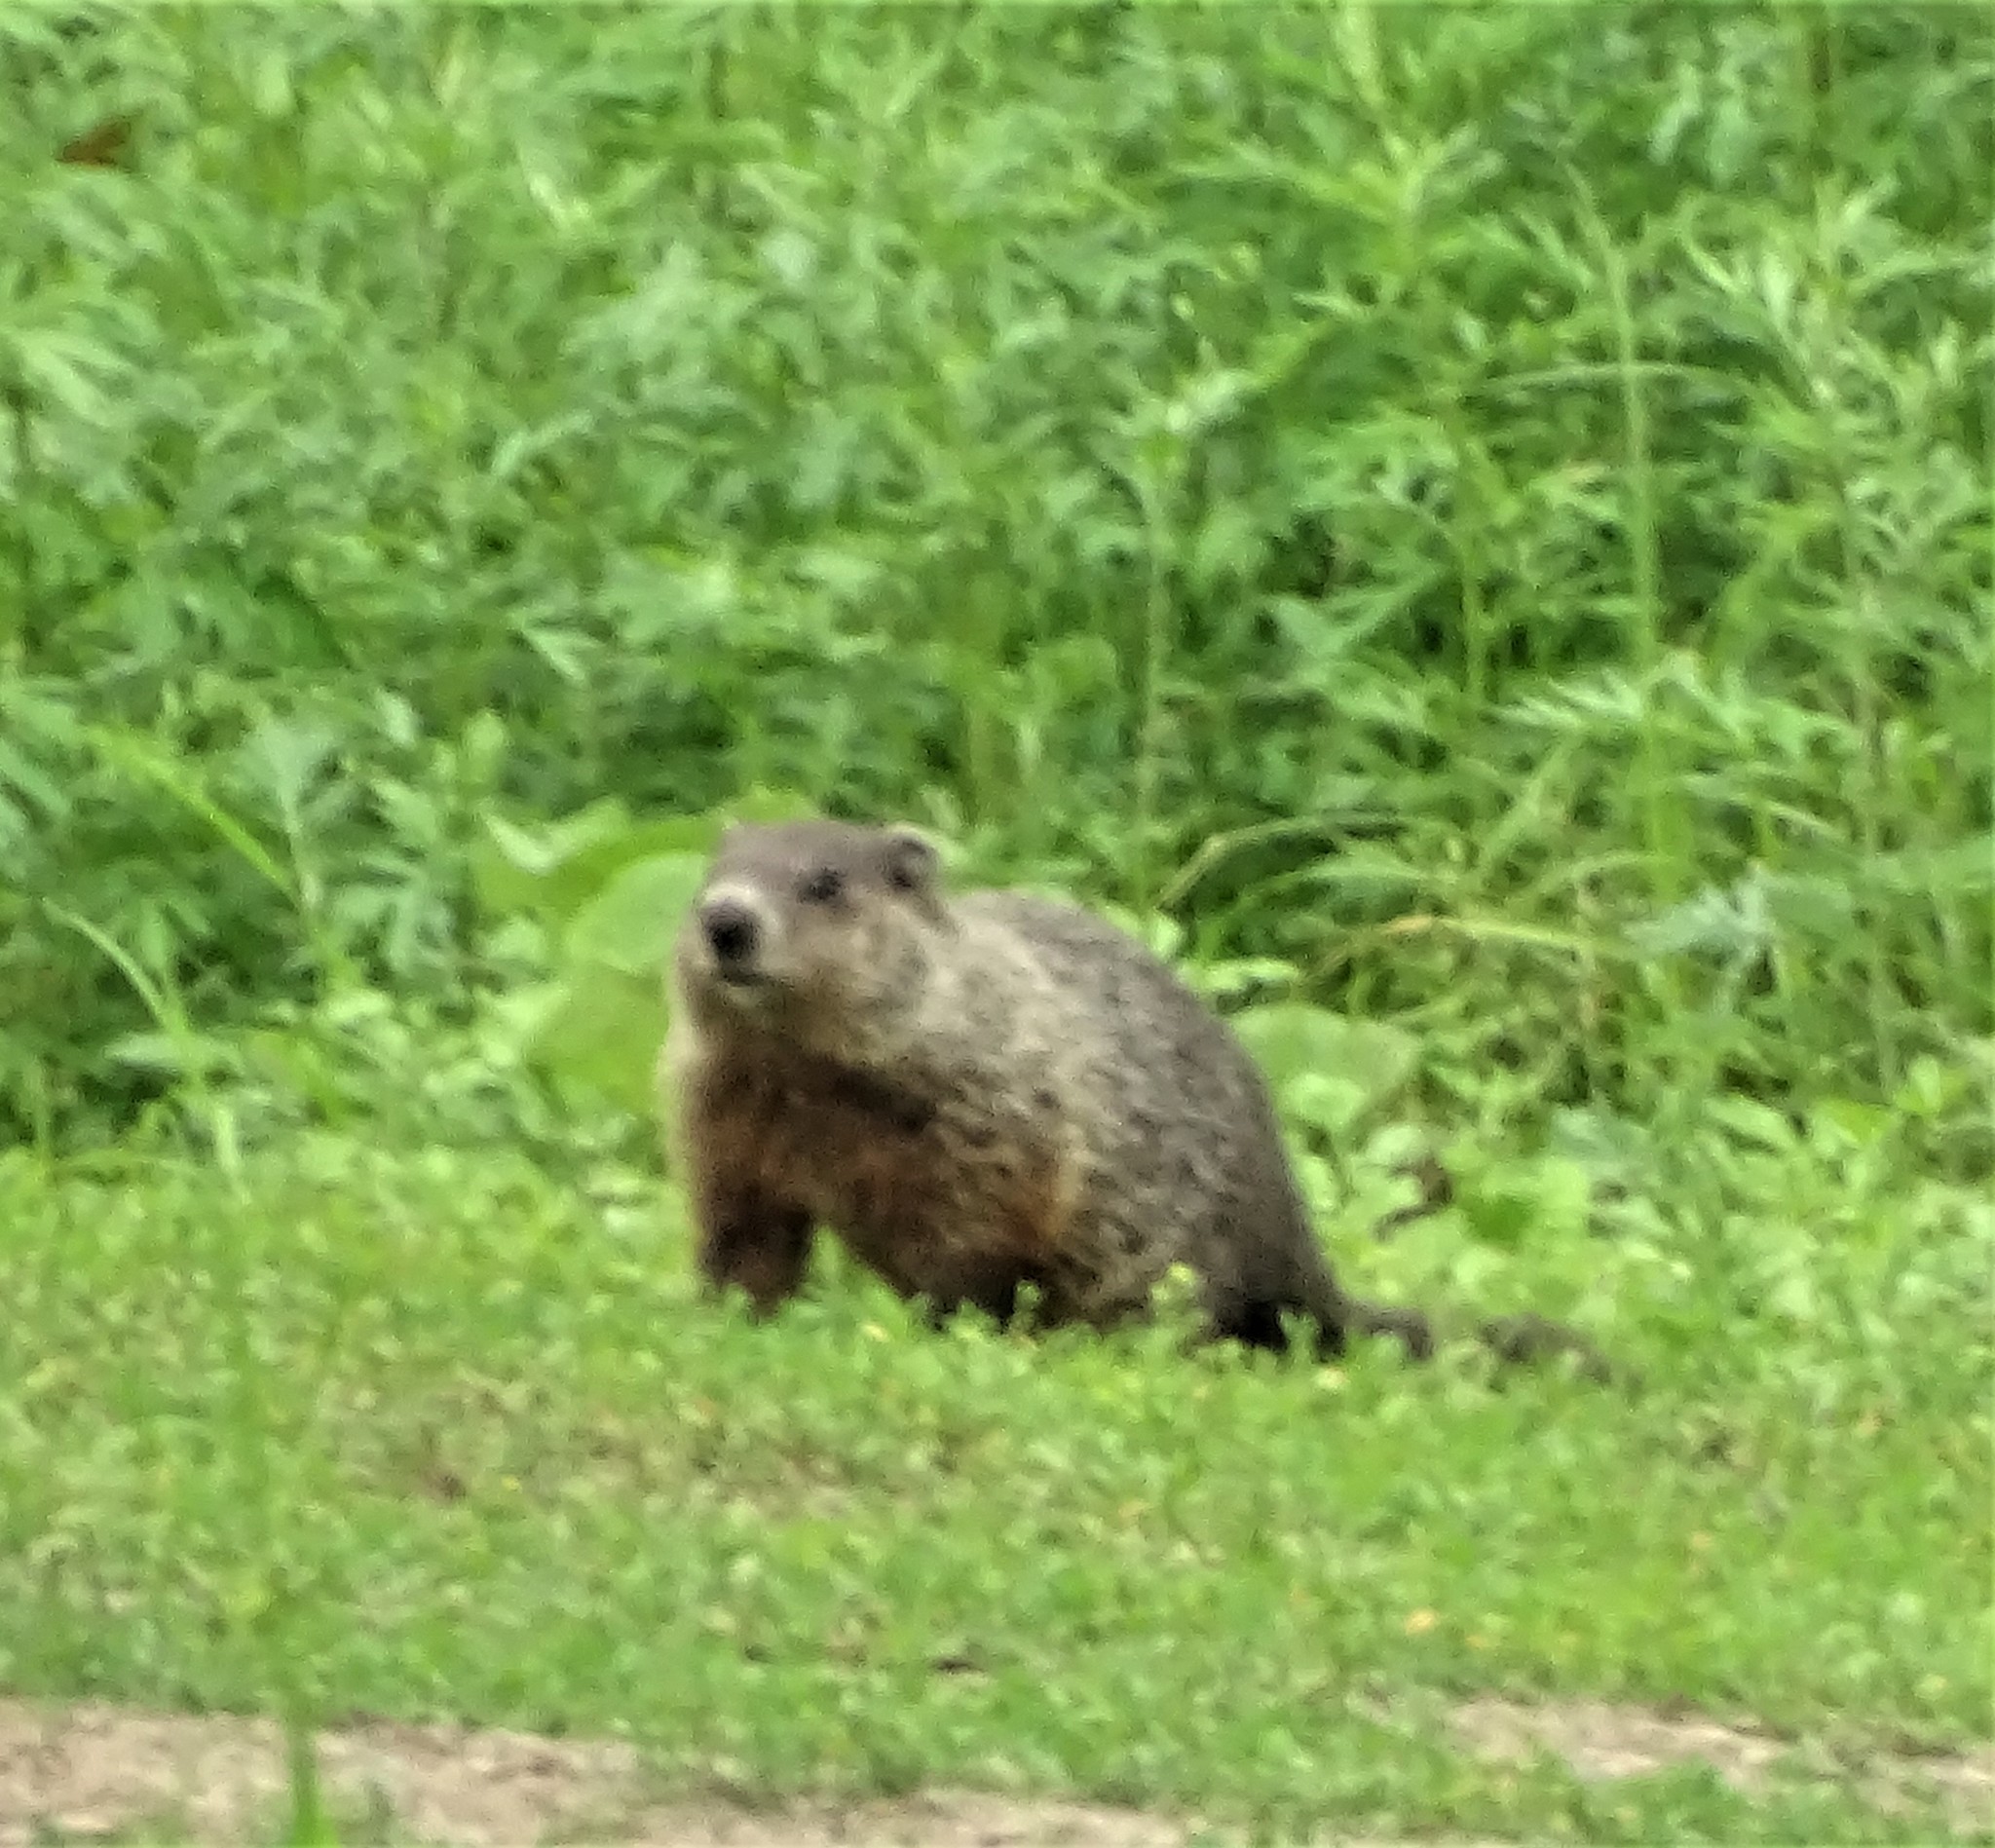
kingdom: Animalia
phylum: Chordata
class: Mammalia
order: Rodentia
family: Sciuridae
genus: Marmota
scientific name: Marmota monax
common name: Groundhog
